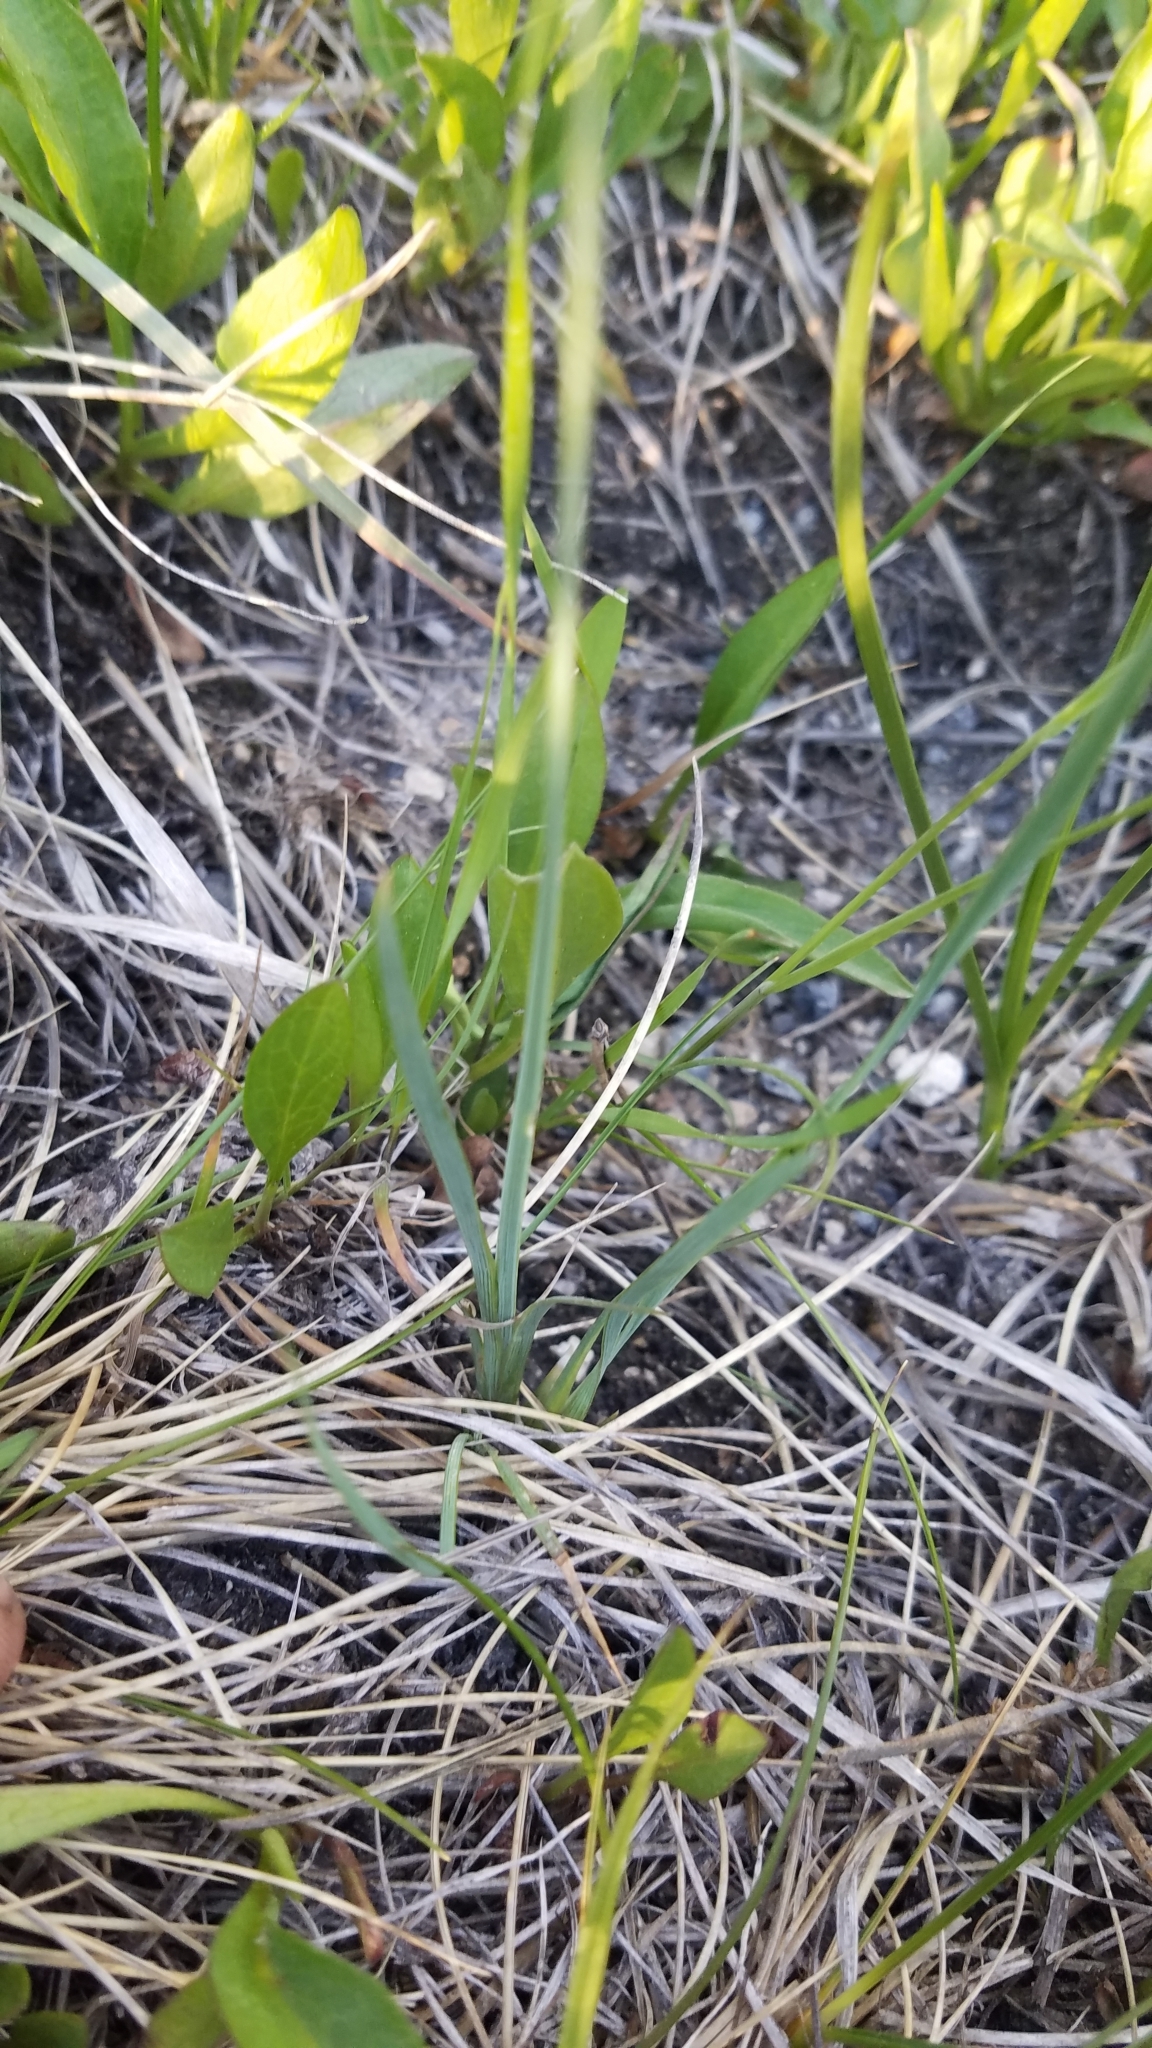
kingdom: Plantae
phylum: Tracheophyta
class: Liliopsida
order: Asparagales
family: Iridaceae
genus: Sisyrinchium
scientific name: Sisyrinchium montanum
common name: American blue-eyed-grass
